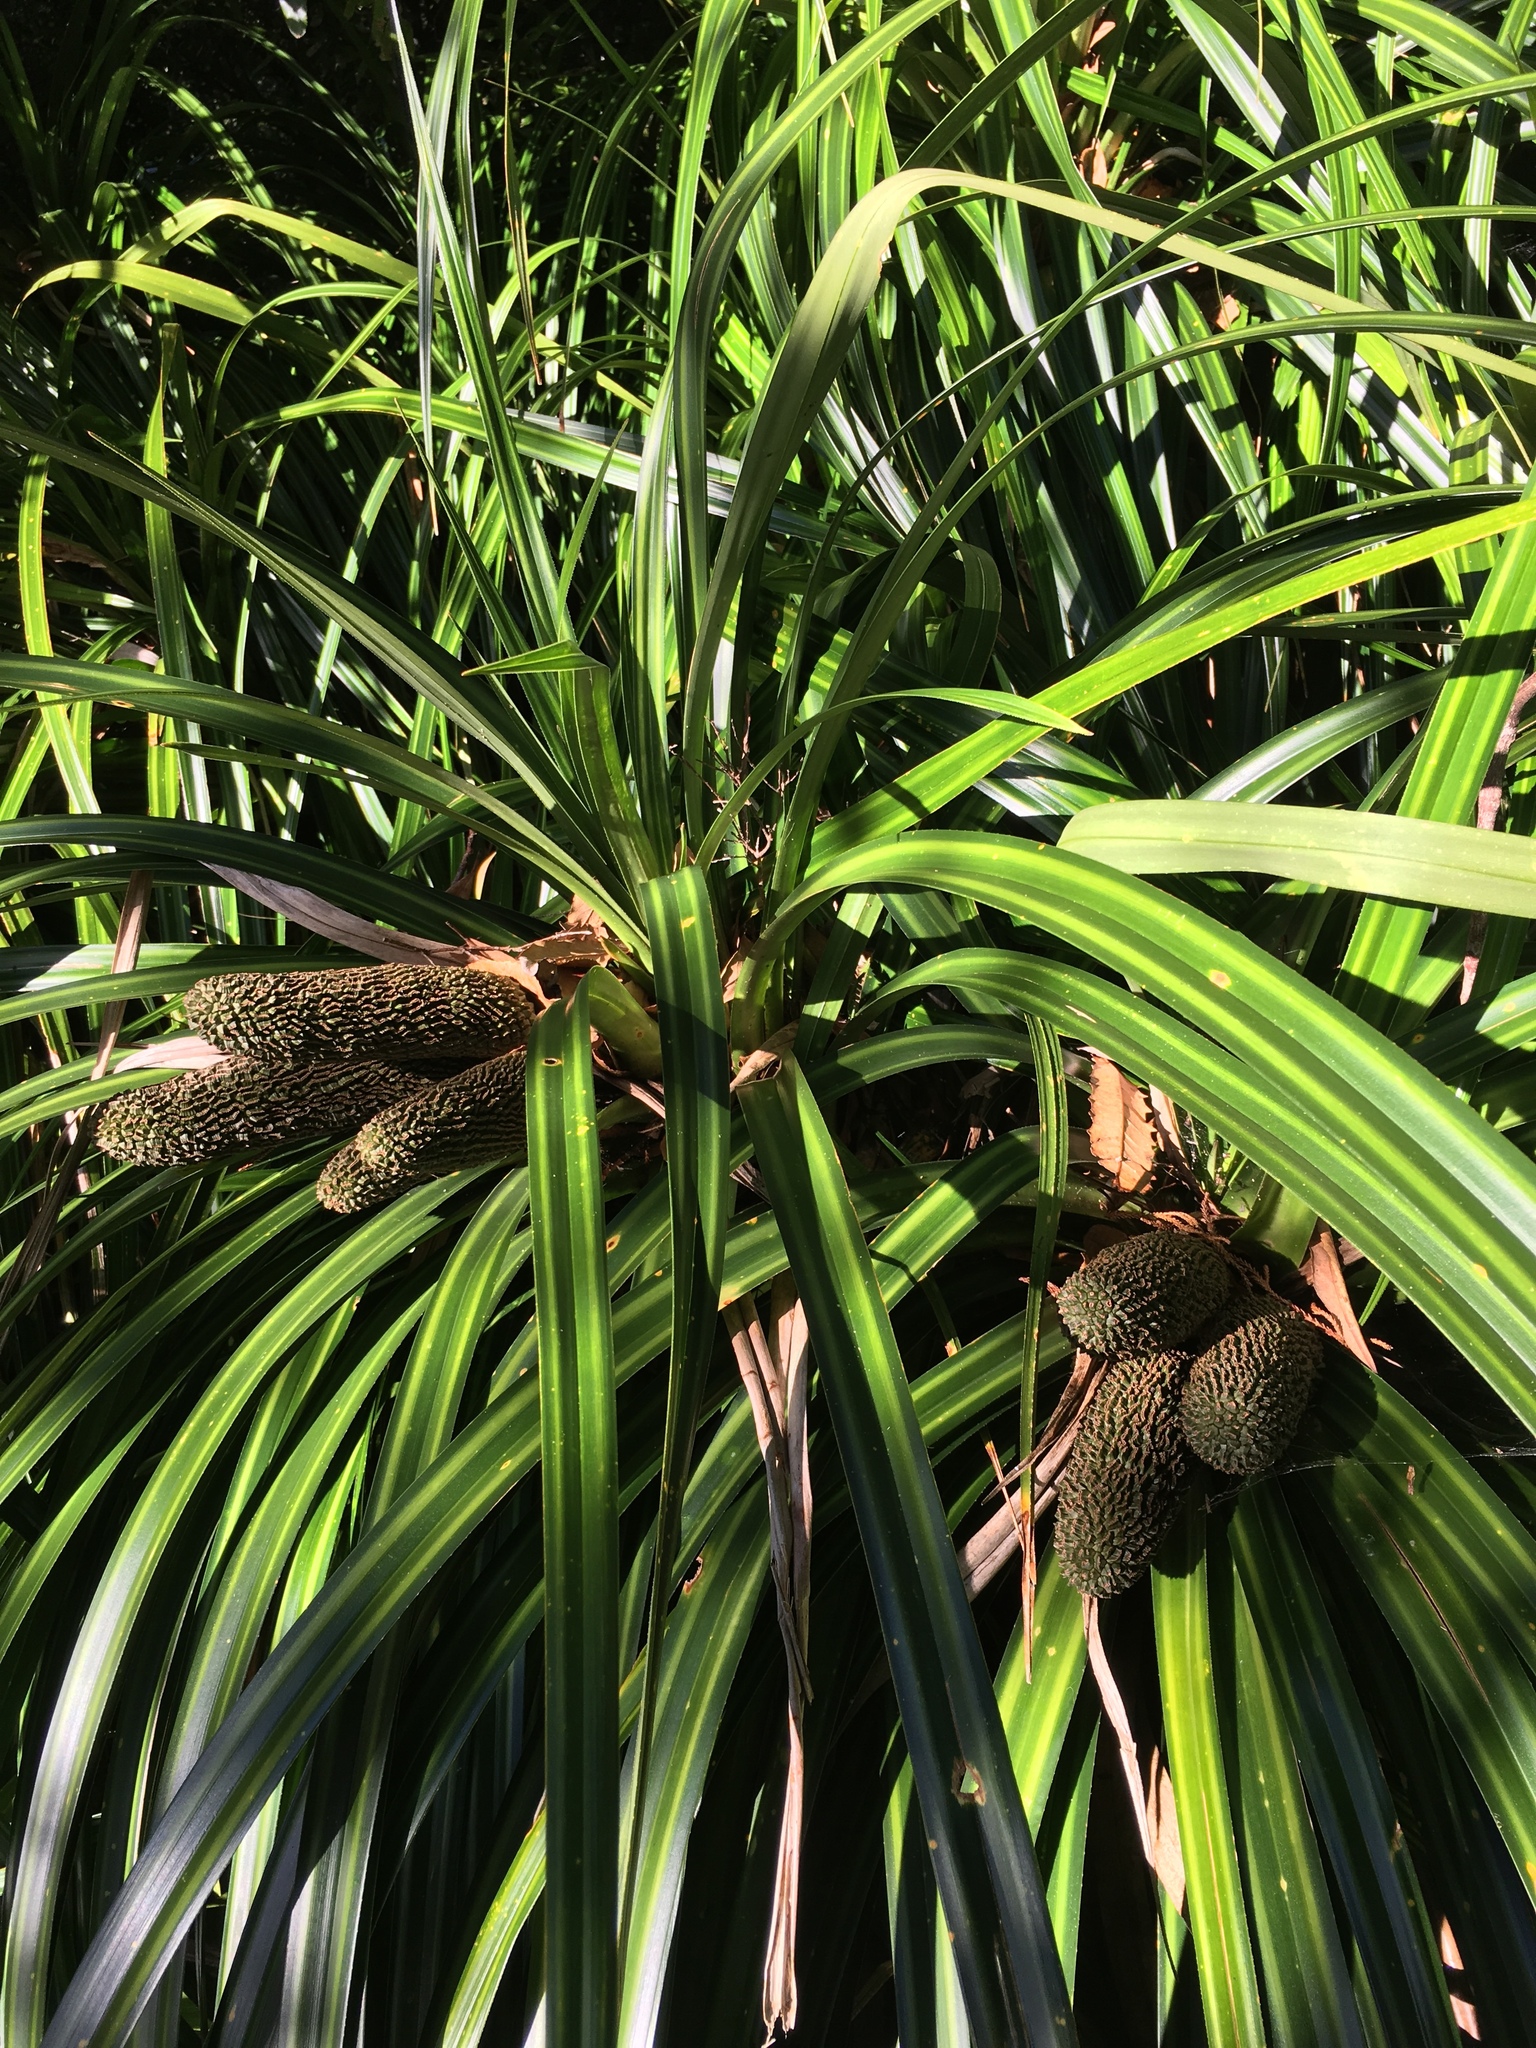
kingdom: Plantae
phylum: Tracheophyta
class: Liliopsida
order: Pandanales
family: Pandanaceae
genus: Freycinetia
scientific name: Freycinetia banksii
